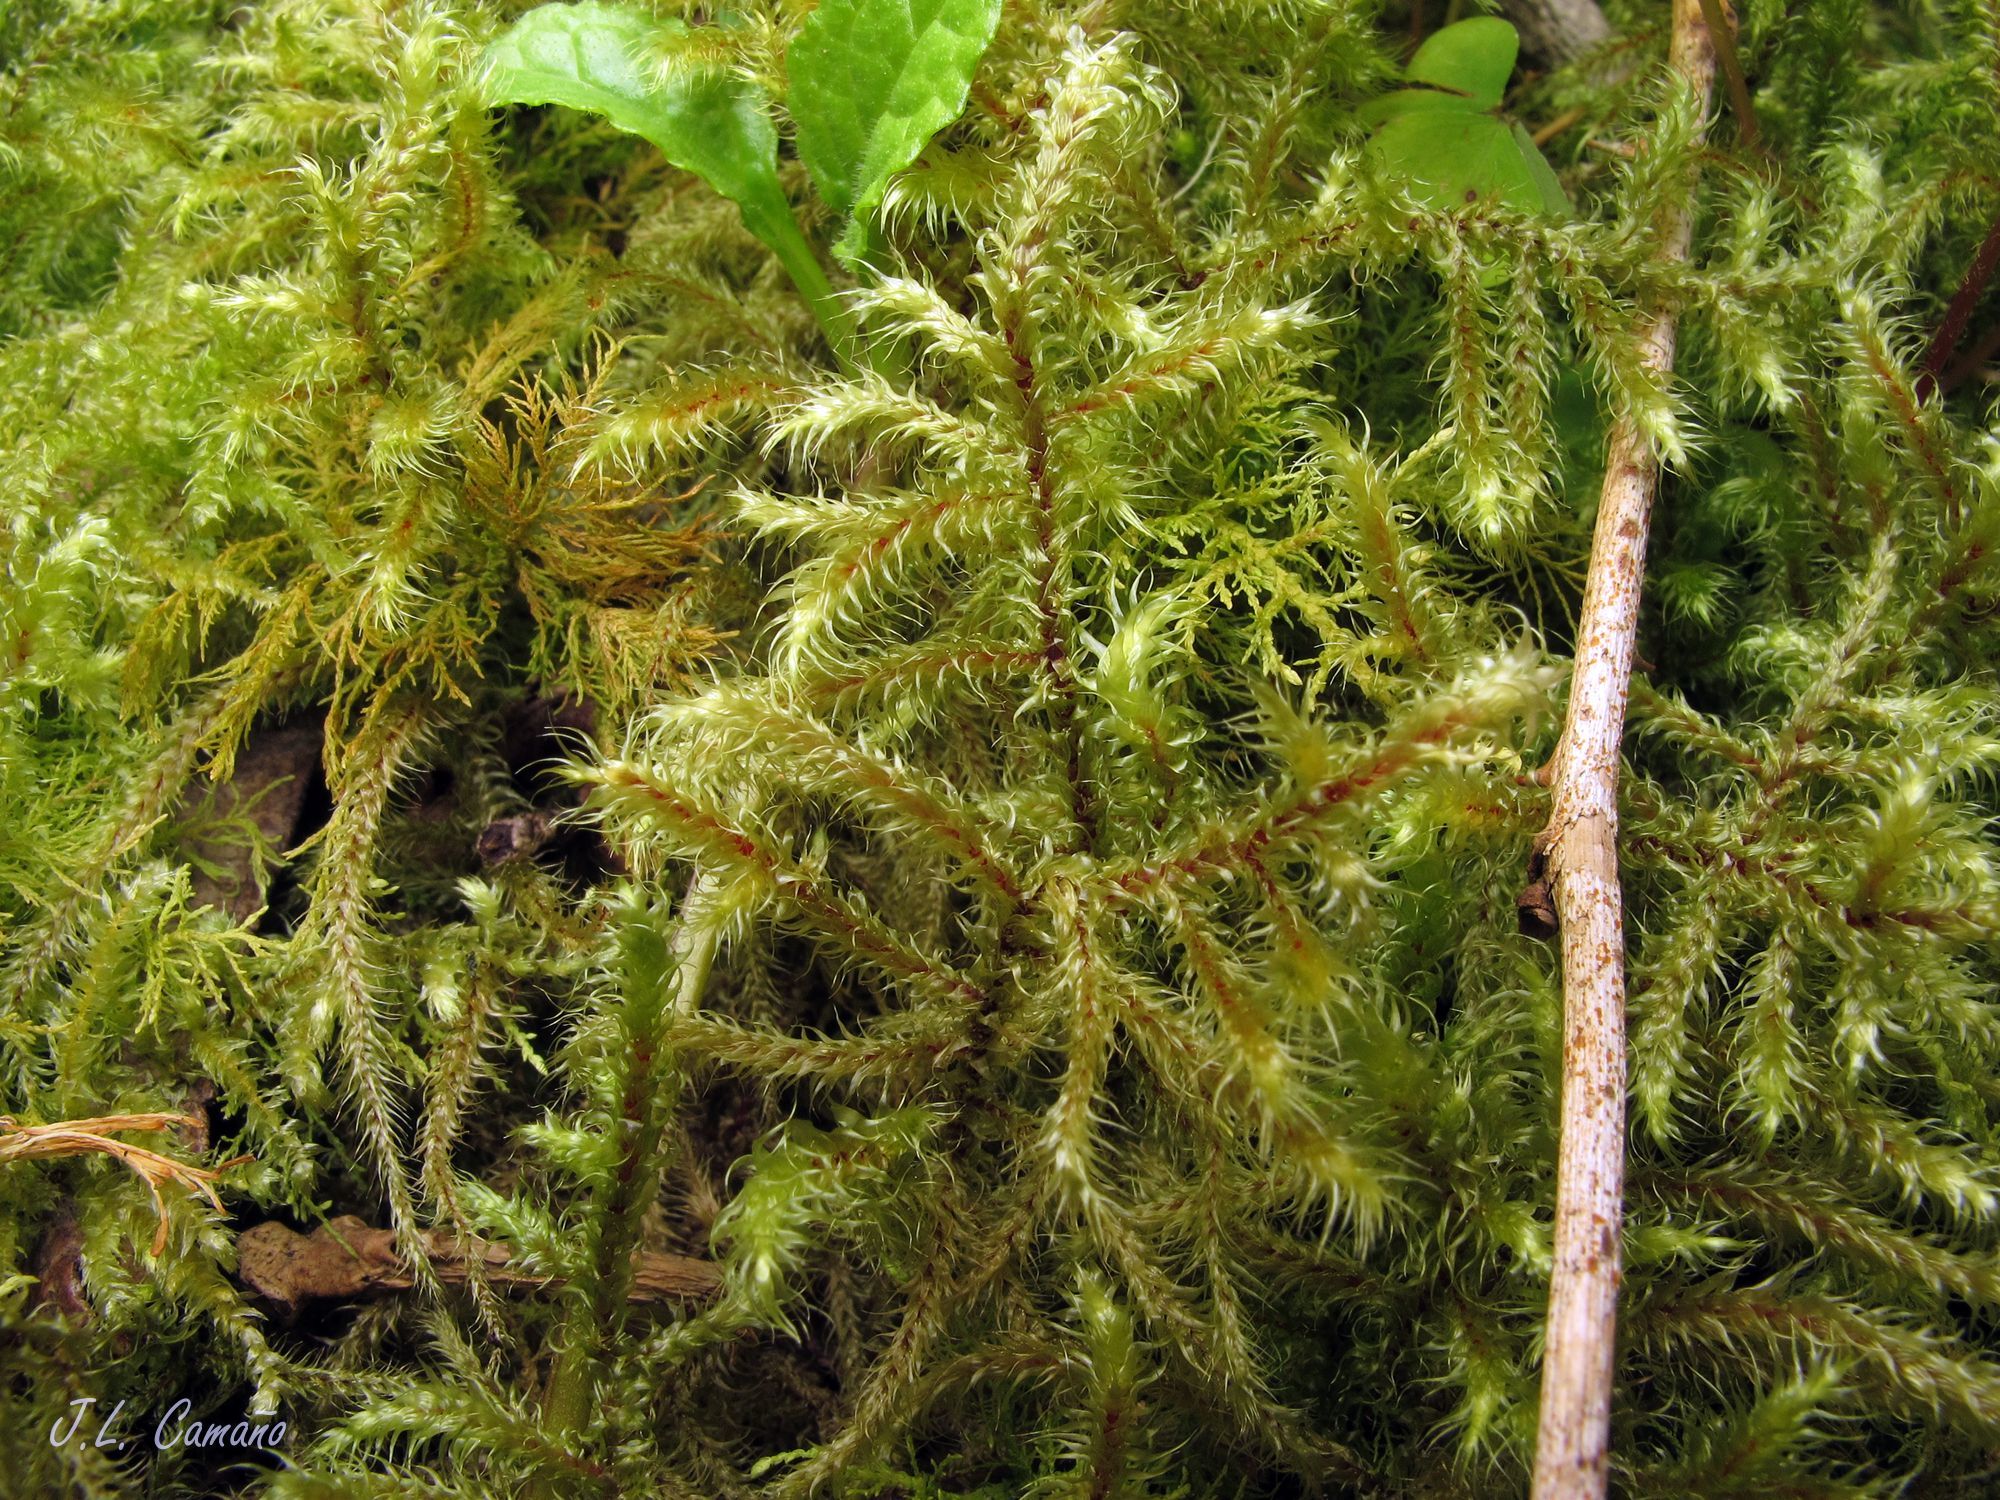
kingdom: Plantae
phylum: Bryophyta
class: Bryopsida
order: Hypnales
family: Hylocomiaceae
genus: Rhytidiadelphus
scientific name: Rhytidiadelphus loreus
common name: Lanky moss
